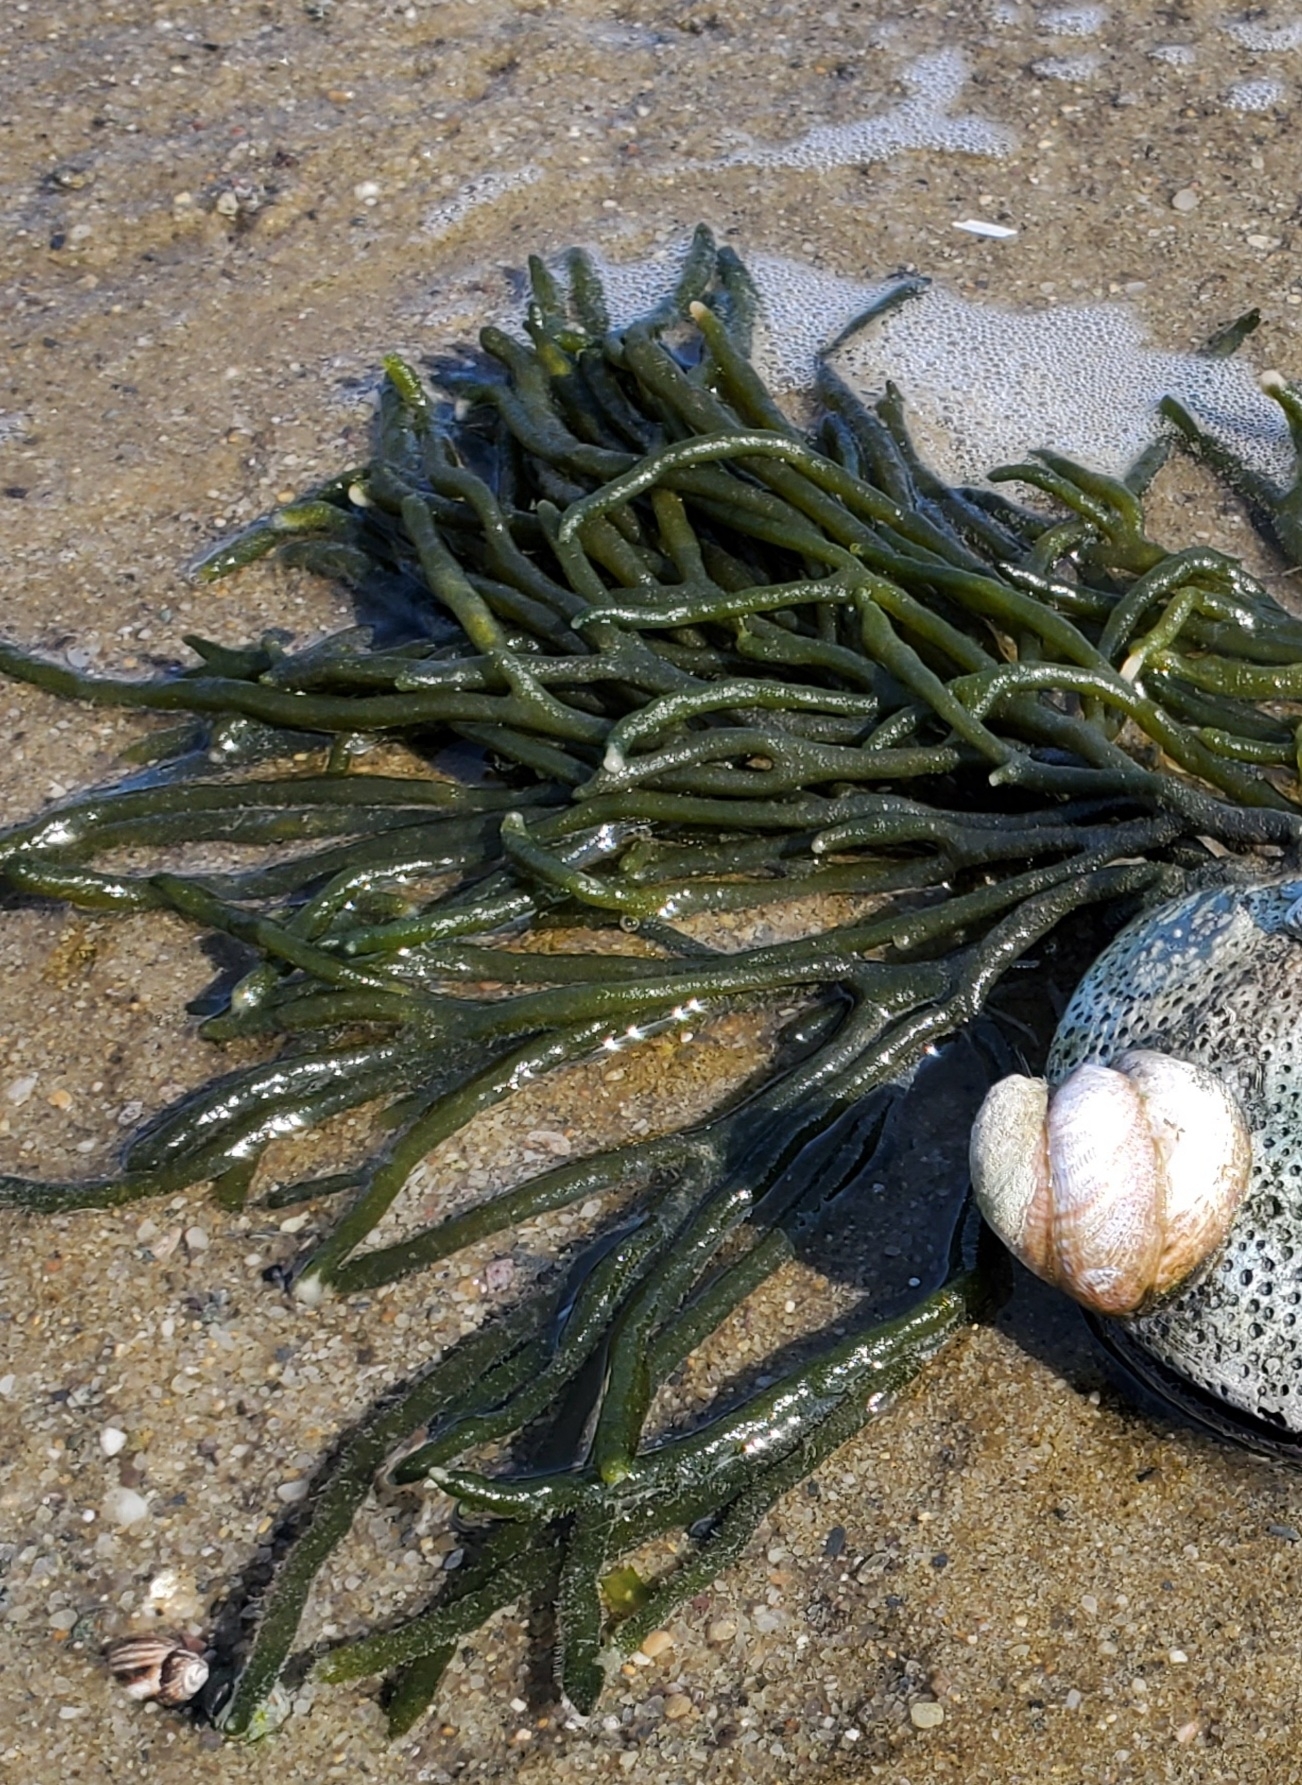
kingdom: Plantae
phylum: Chlorophyta
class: Ulvophyceae
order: Bryopsidales
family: Codiaceae
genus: Codium
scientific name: Codium fragile
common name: Dead man's fingers
